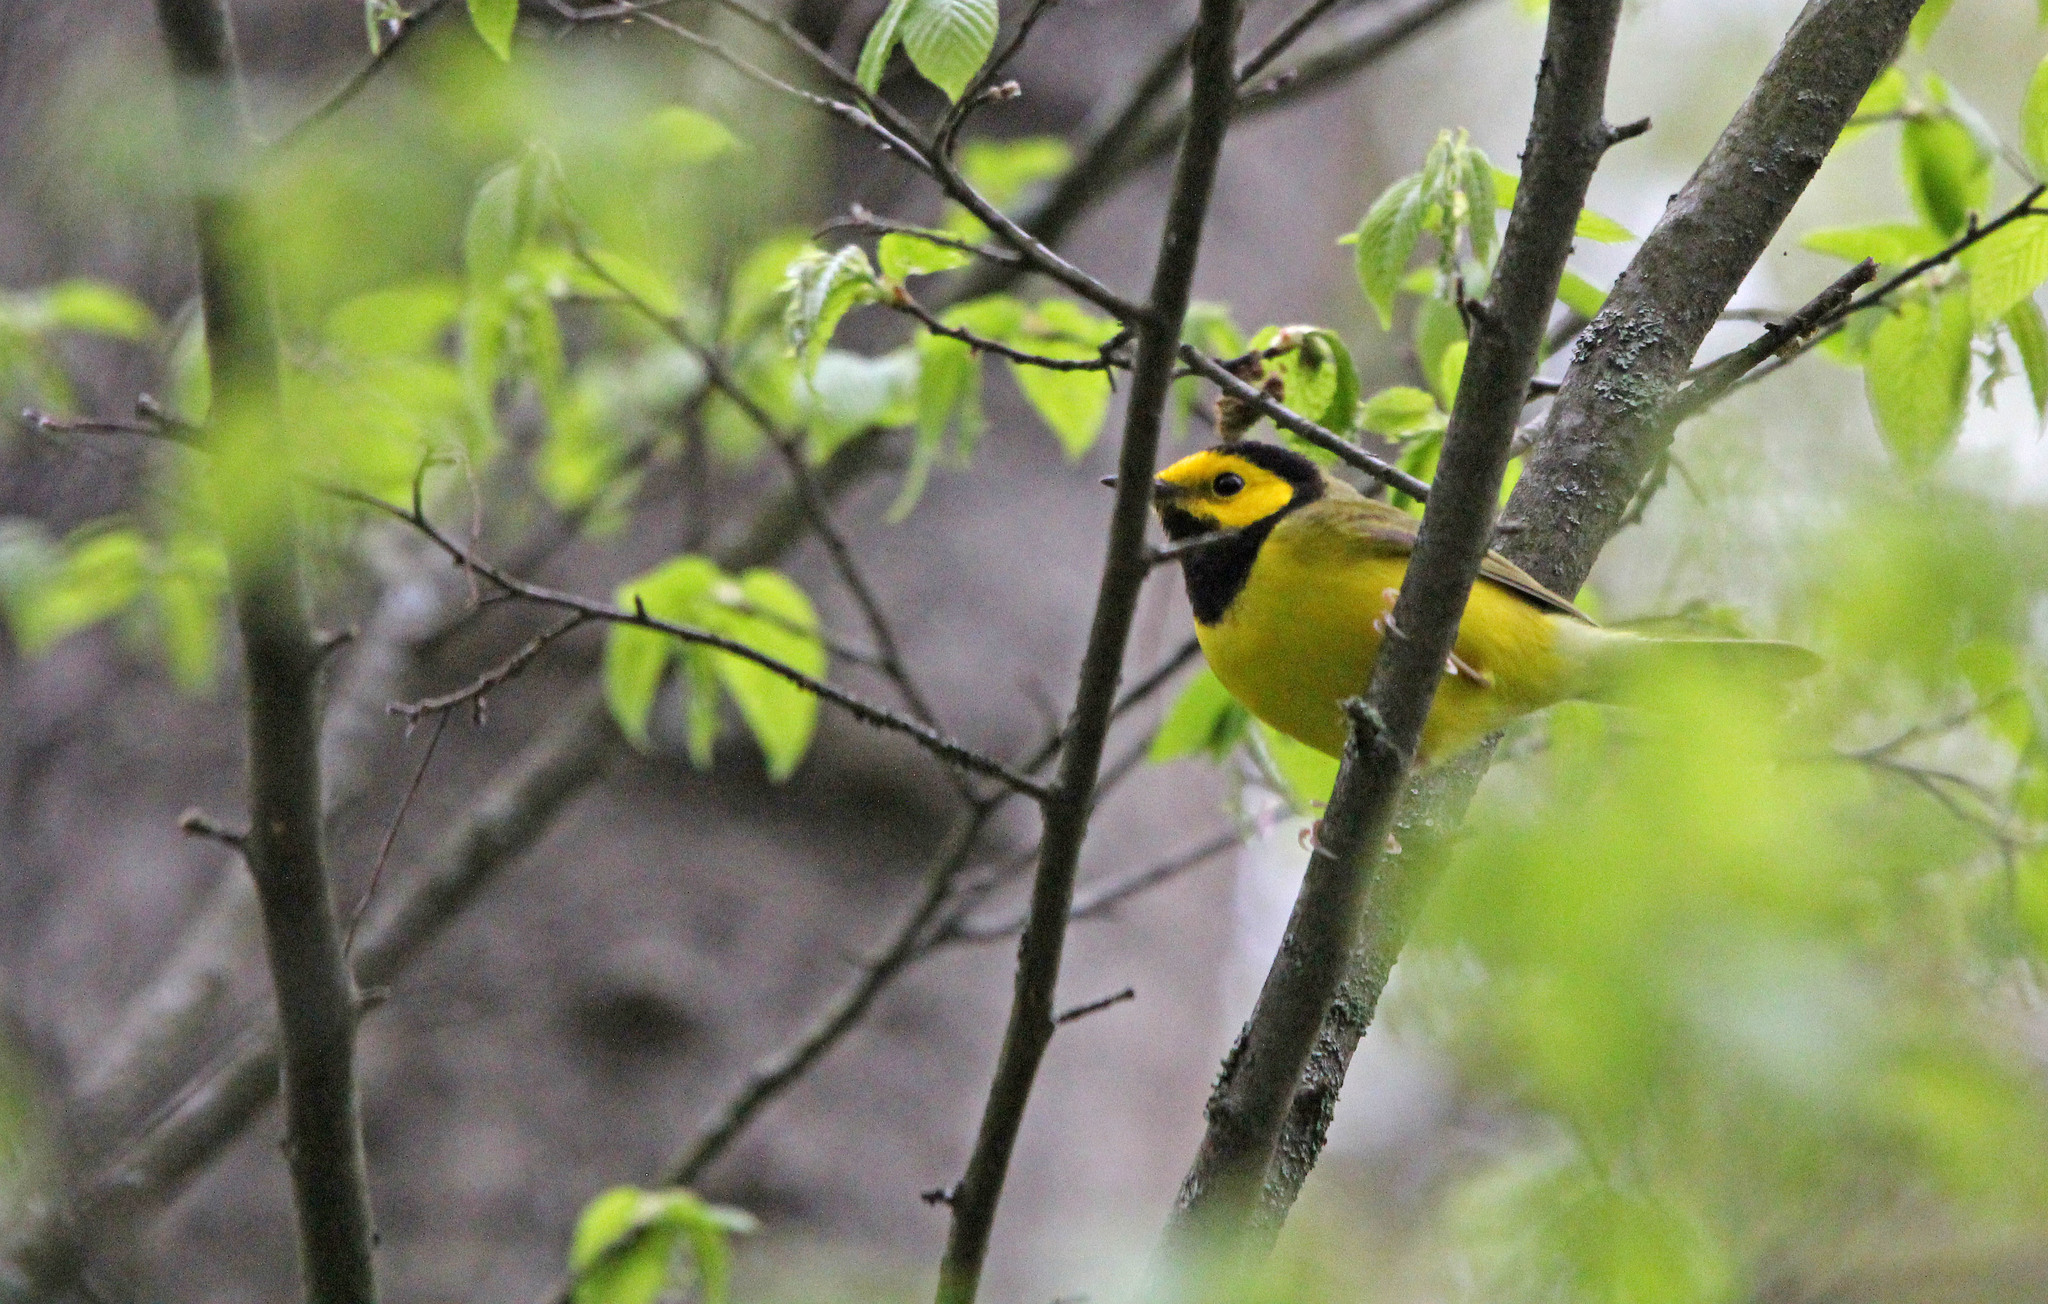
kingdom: Animalia
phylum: Chordata
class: Aves
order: Passeriformes
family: Parulidae
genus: Setophaga
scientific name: Setophaga citrina
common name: Hooded warbler
